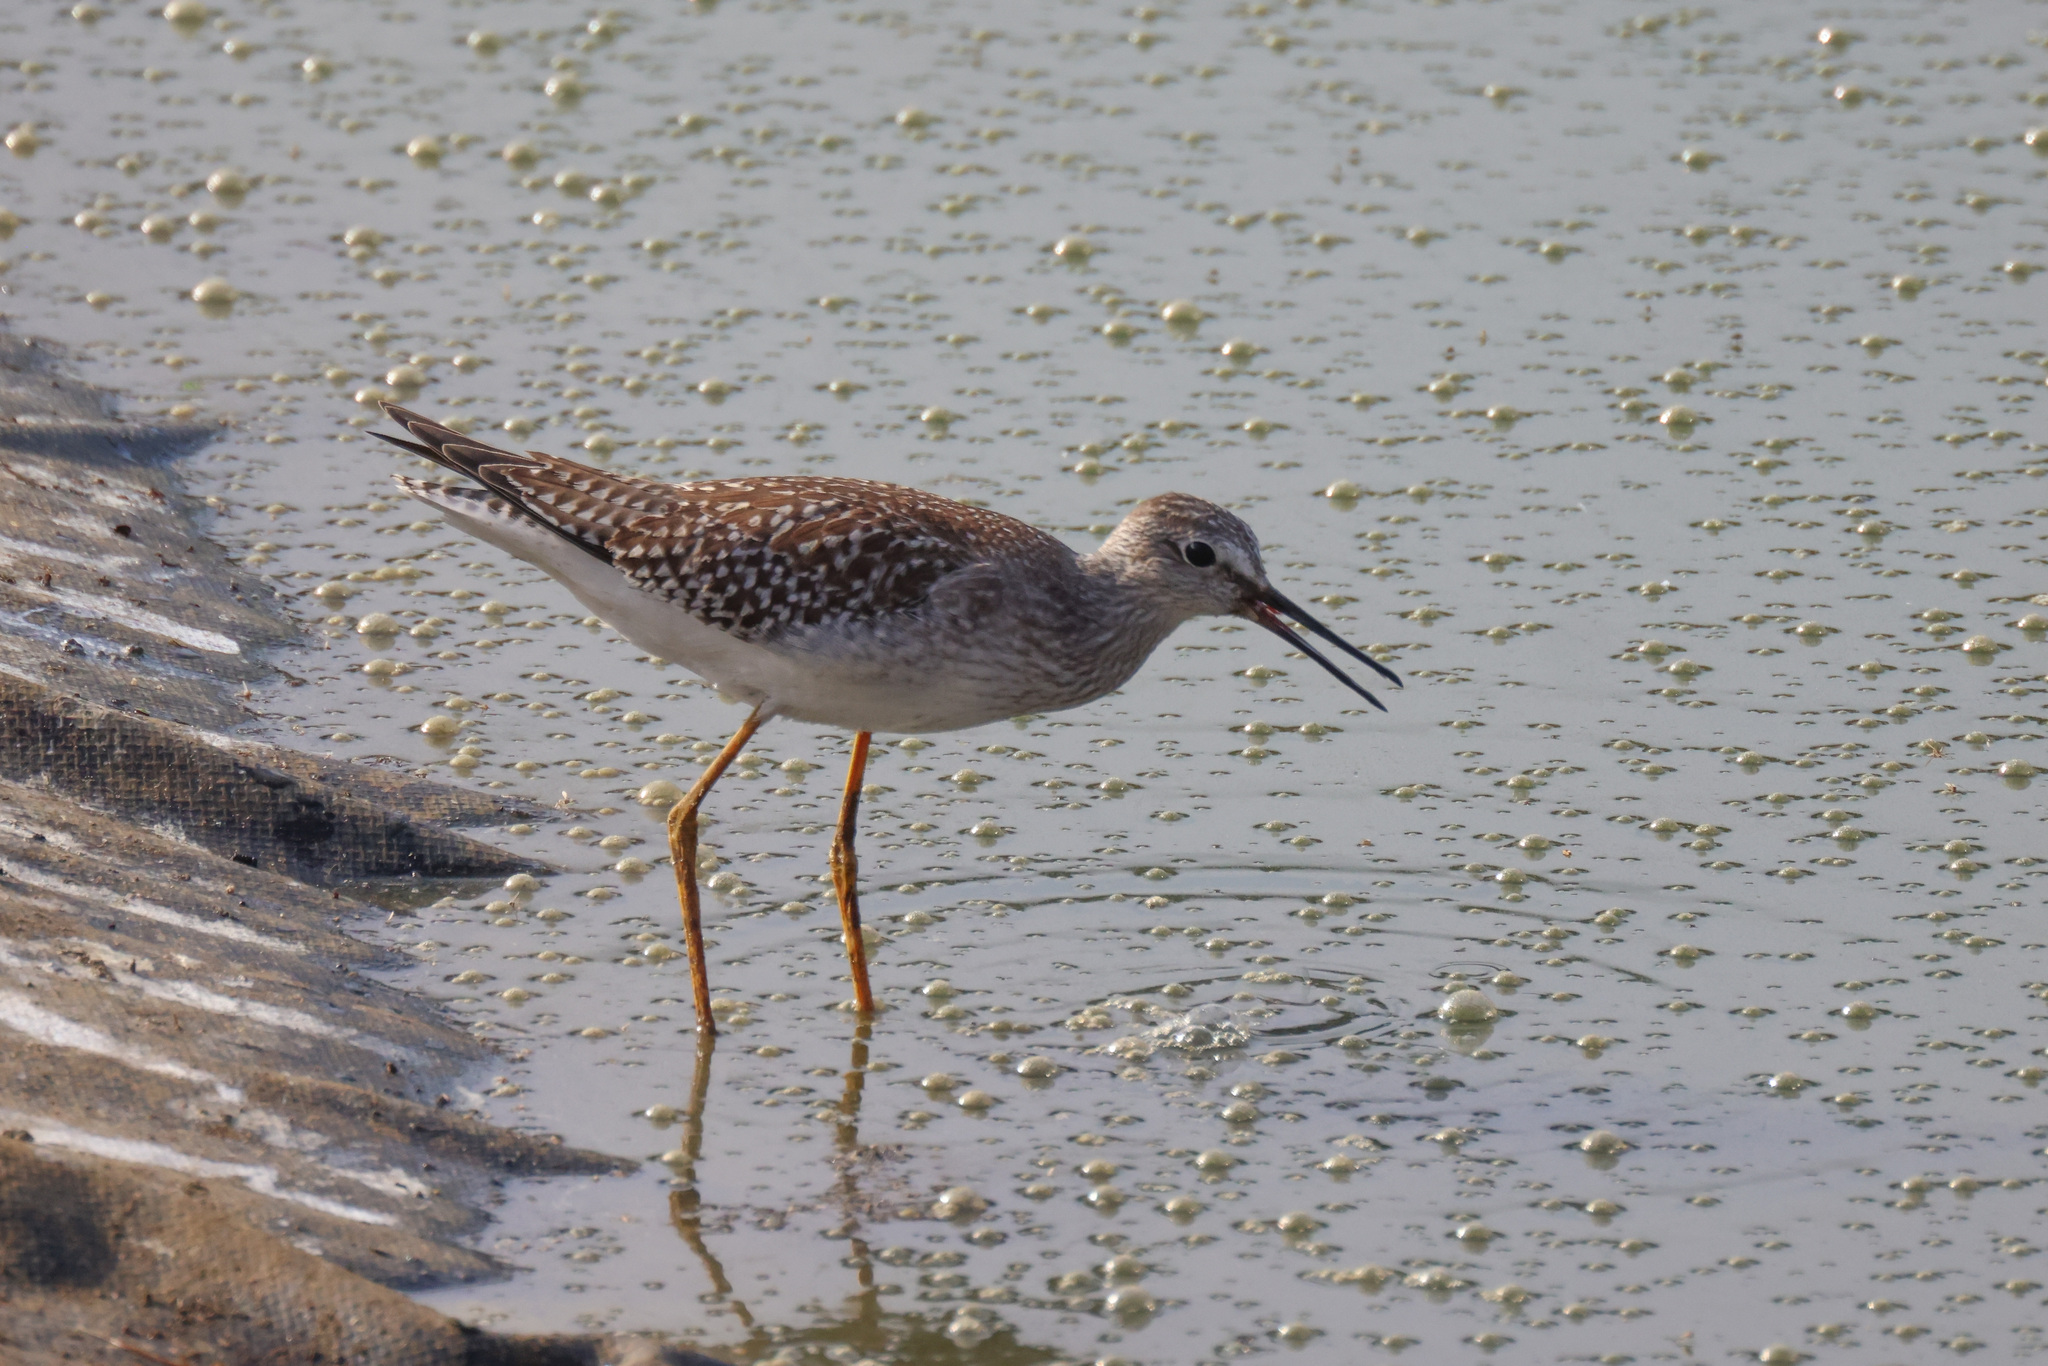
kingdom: Animalia
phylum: Chordata
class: Aves
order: Charadriiformes
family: Scolopacidae
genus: Tringa
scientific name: Tringa flavipes
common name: Lesser yellowlegs
